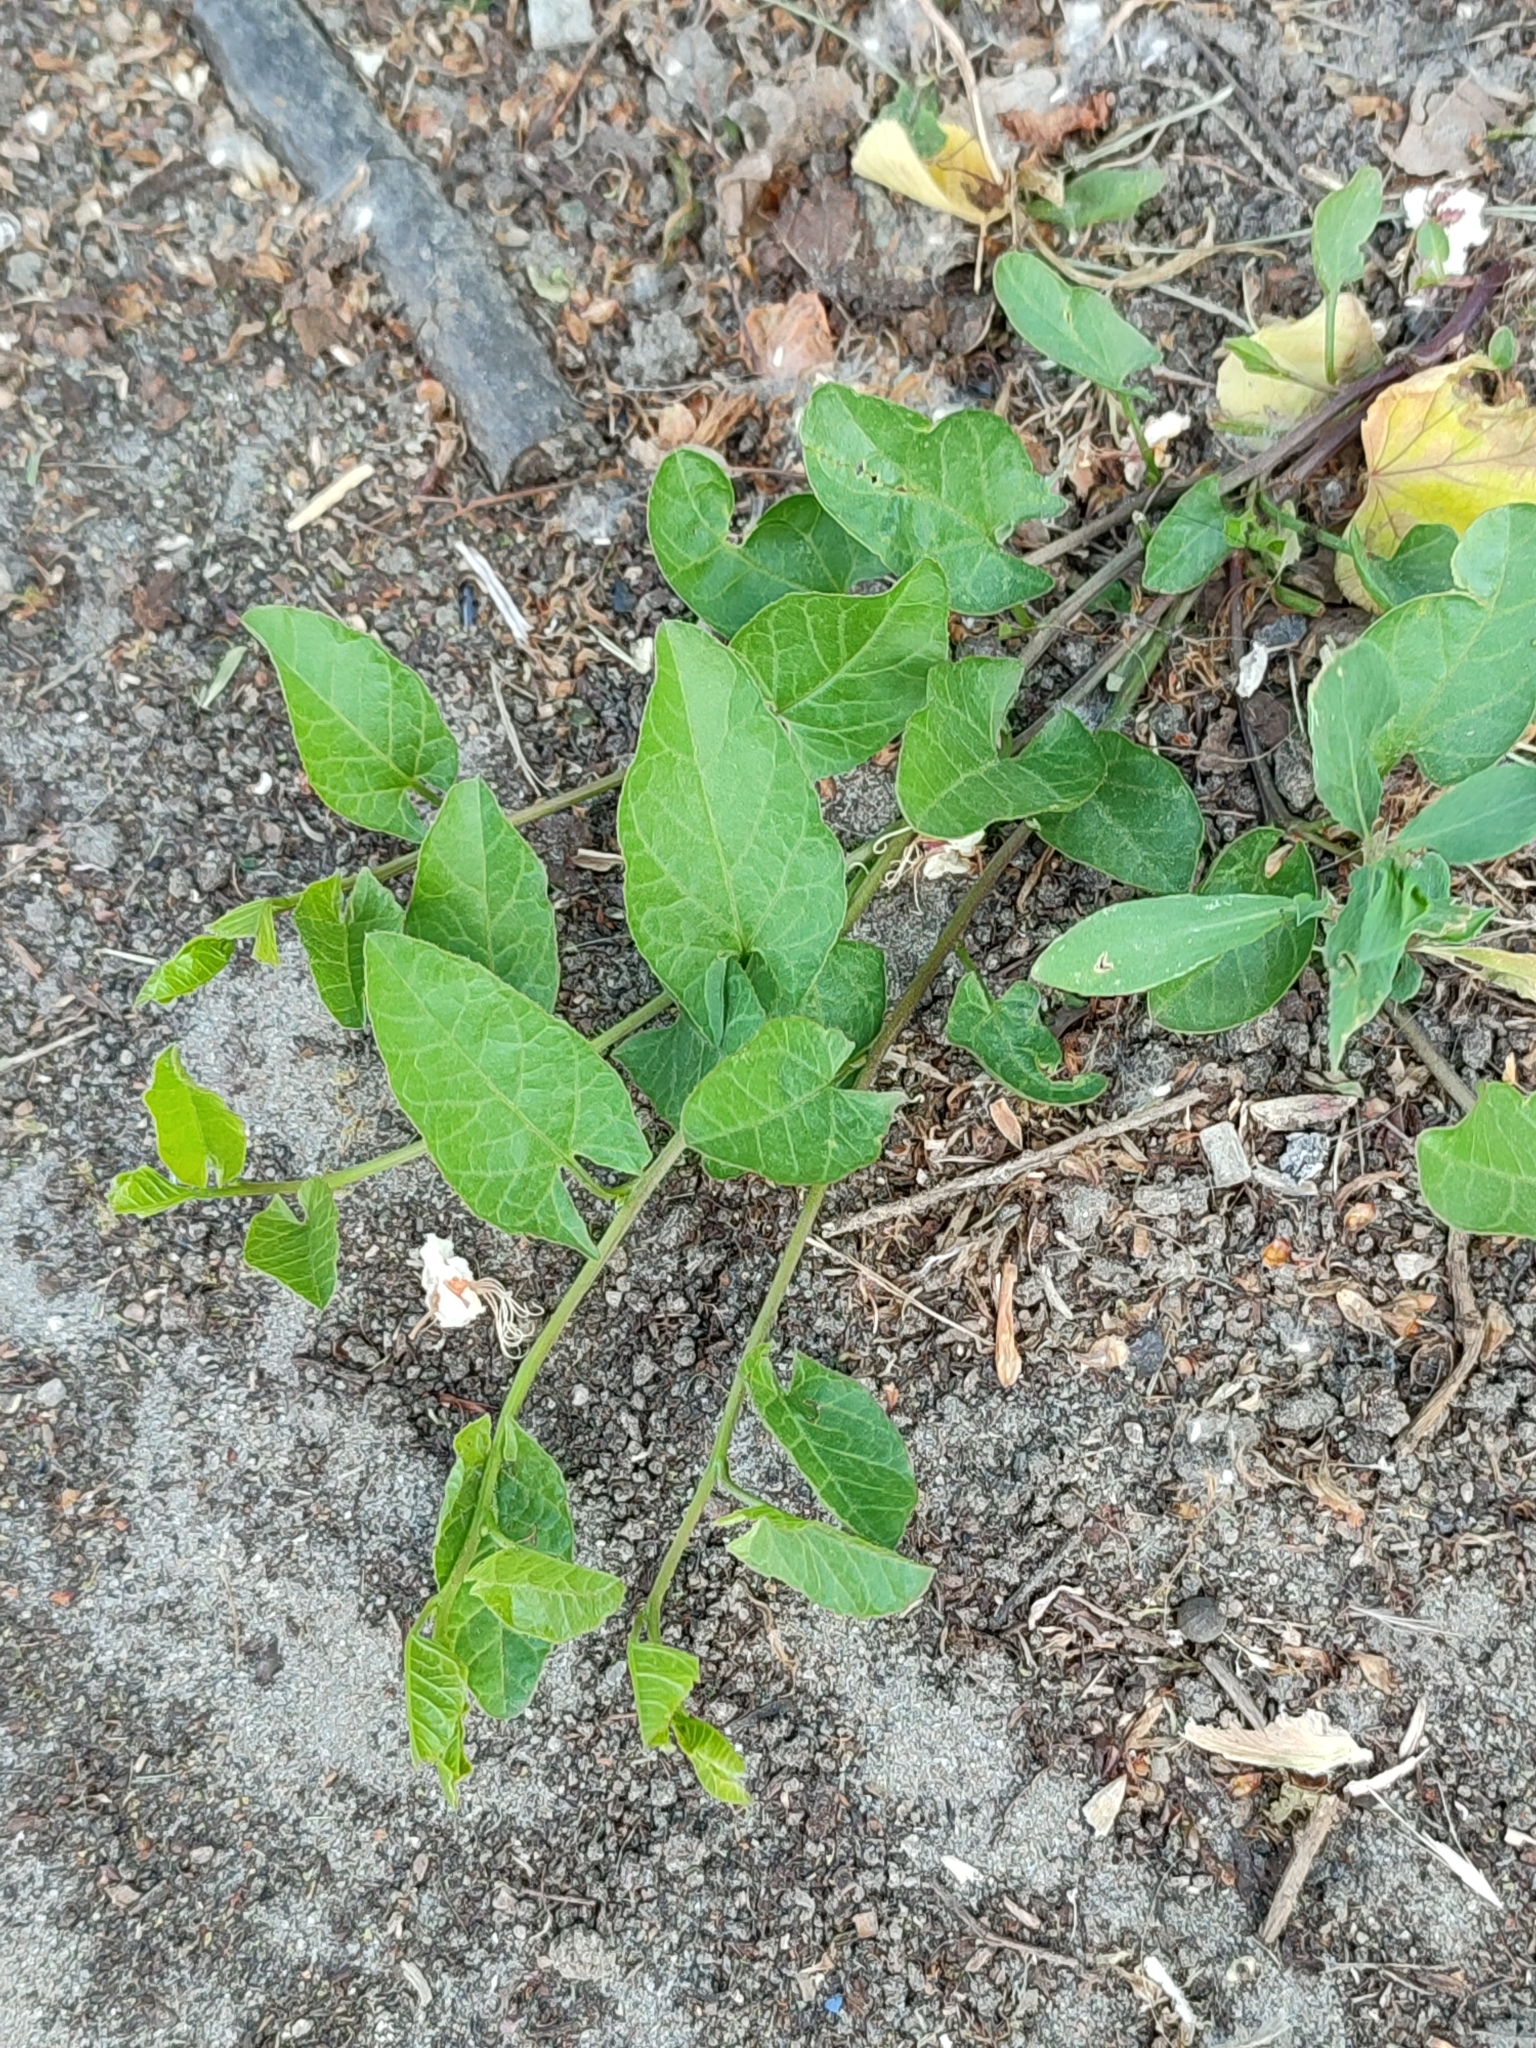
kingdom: Plantae
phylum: Tracheophyta
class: Magnoliopsida
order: Solanales
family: Convolvulaceae
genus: Convolvulus
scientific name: Convolvulus arvensis
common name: Field bindweed
